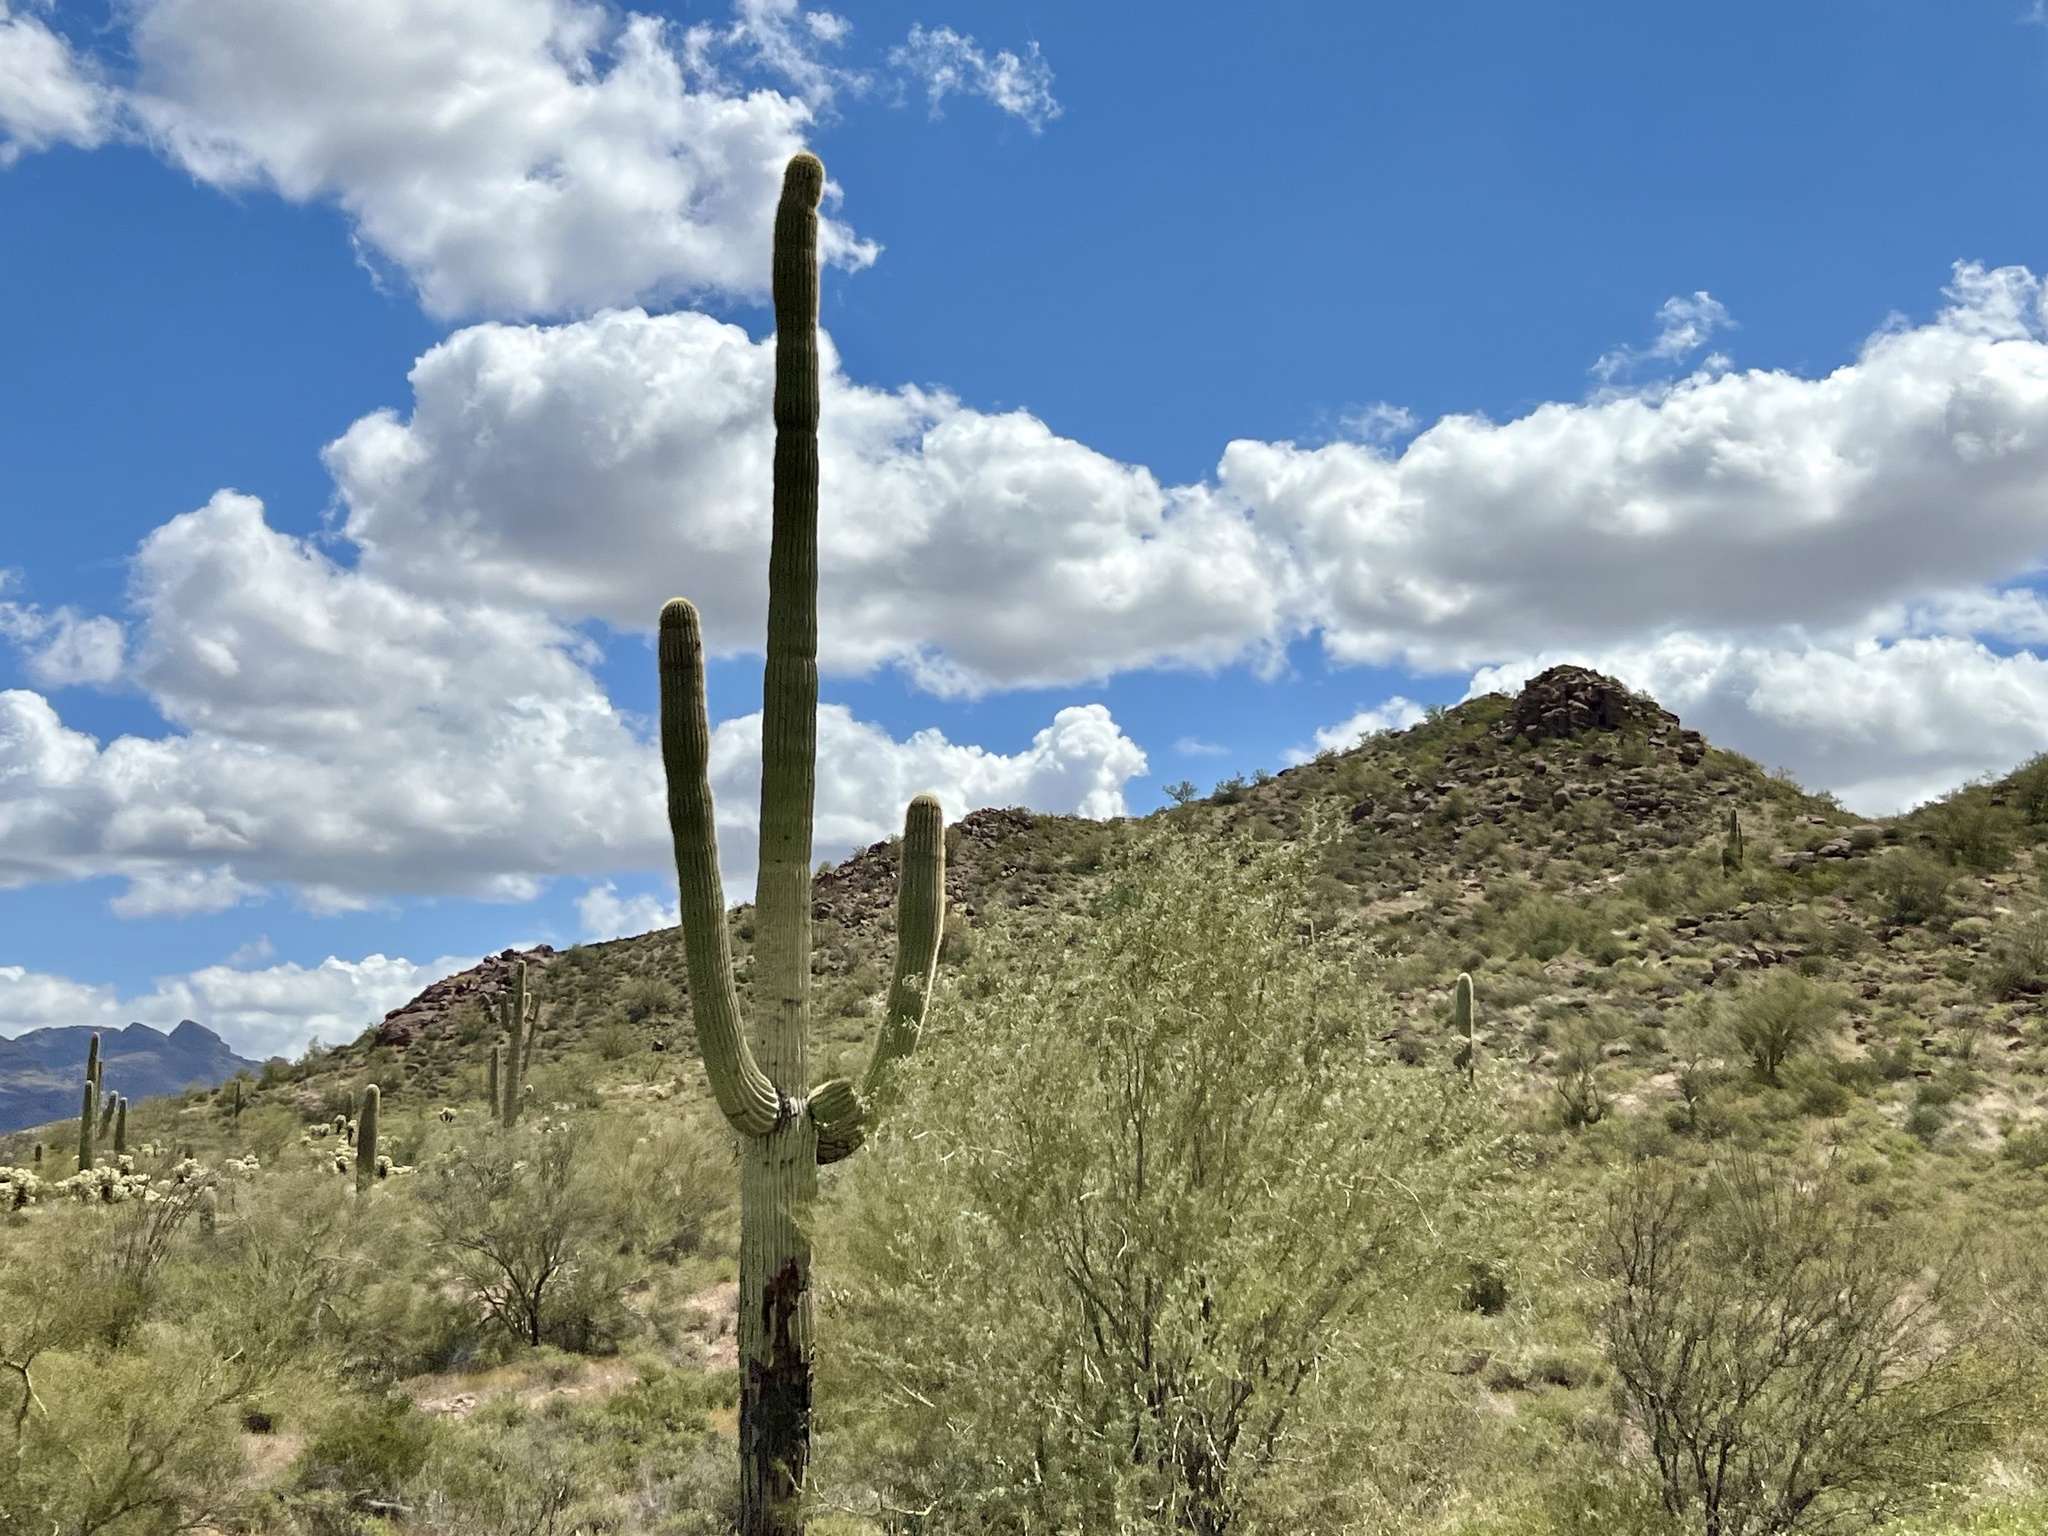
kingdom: Plantae
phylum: Tracheophyta
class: Magnoliopsida
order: Caryophyllales
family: Cactaceae
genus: Carnegiea
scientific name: Carnegiea gigantea
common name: Saguaro
